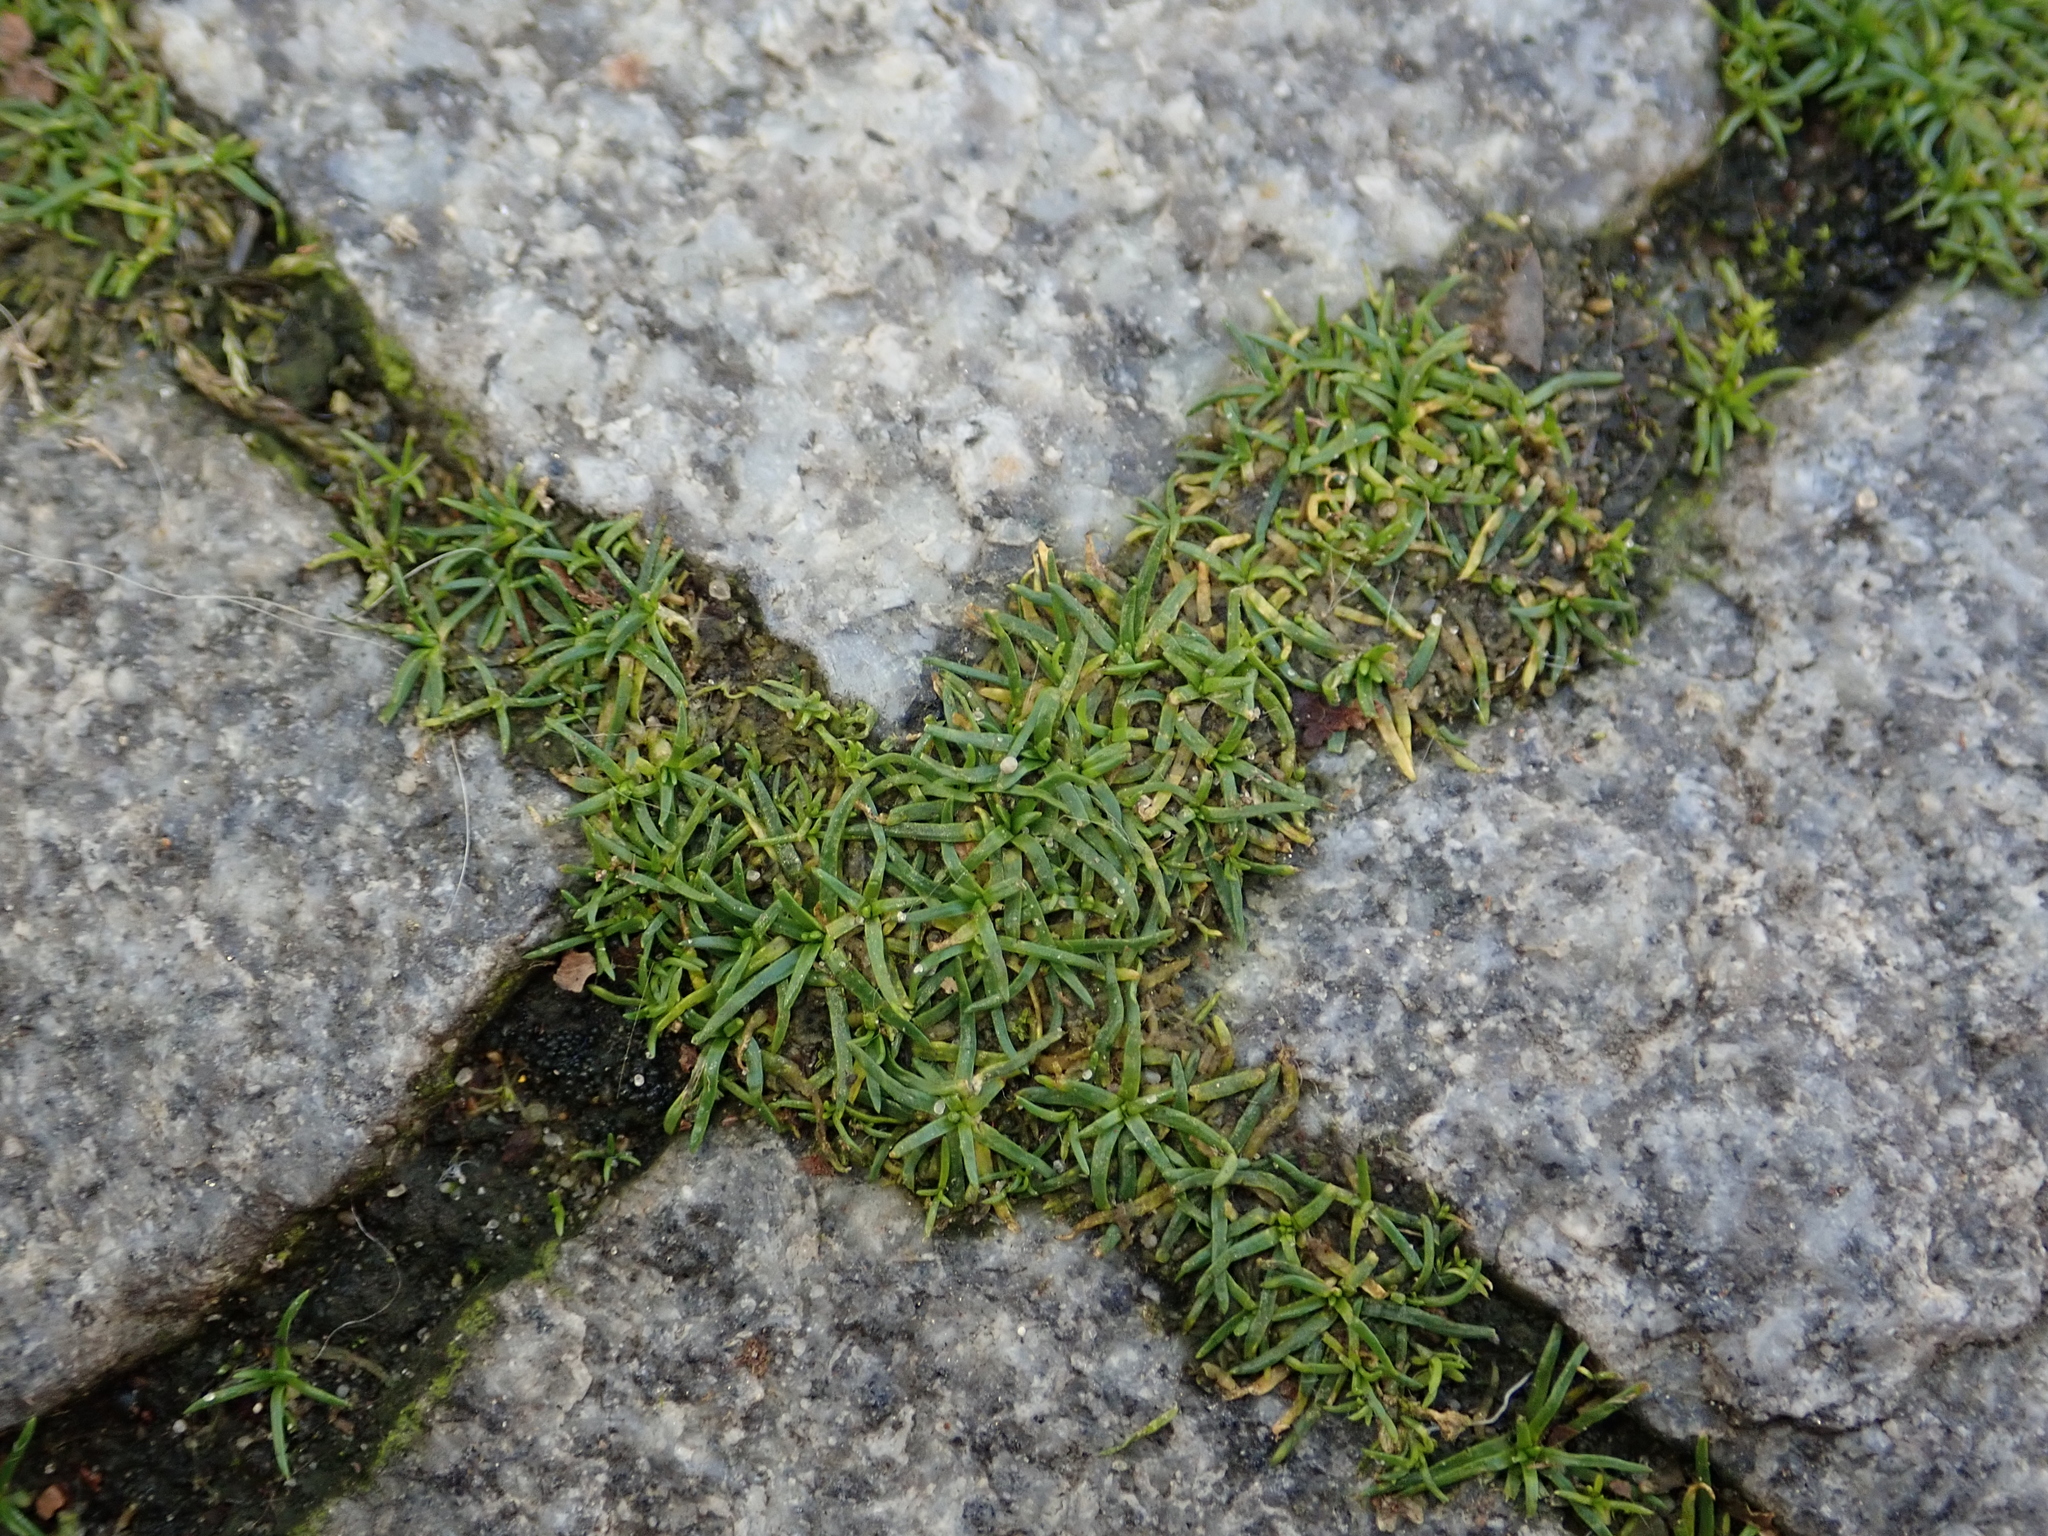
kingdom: Plantae
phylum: Tracheophyta
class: Magnoliopsida
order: Caryophyllales
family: Caryophyllaceae
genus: Sagina
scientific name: Sagina procumbens
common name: Procumbent pearlwort
